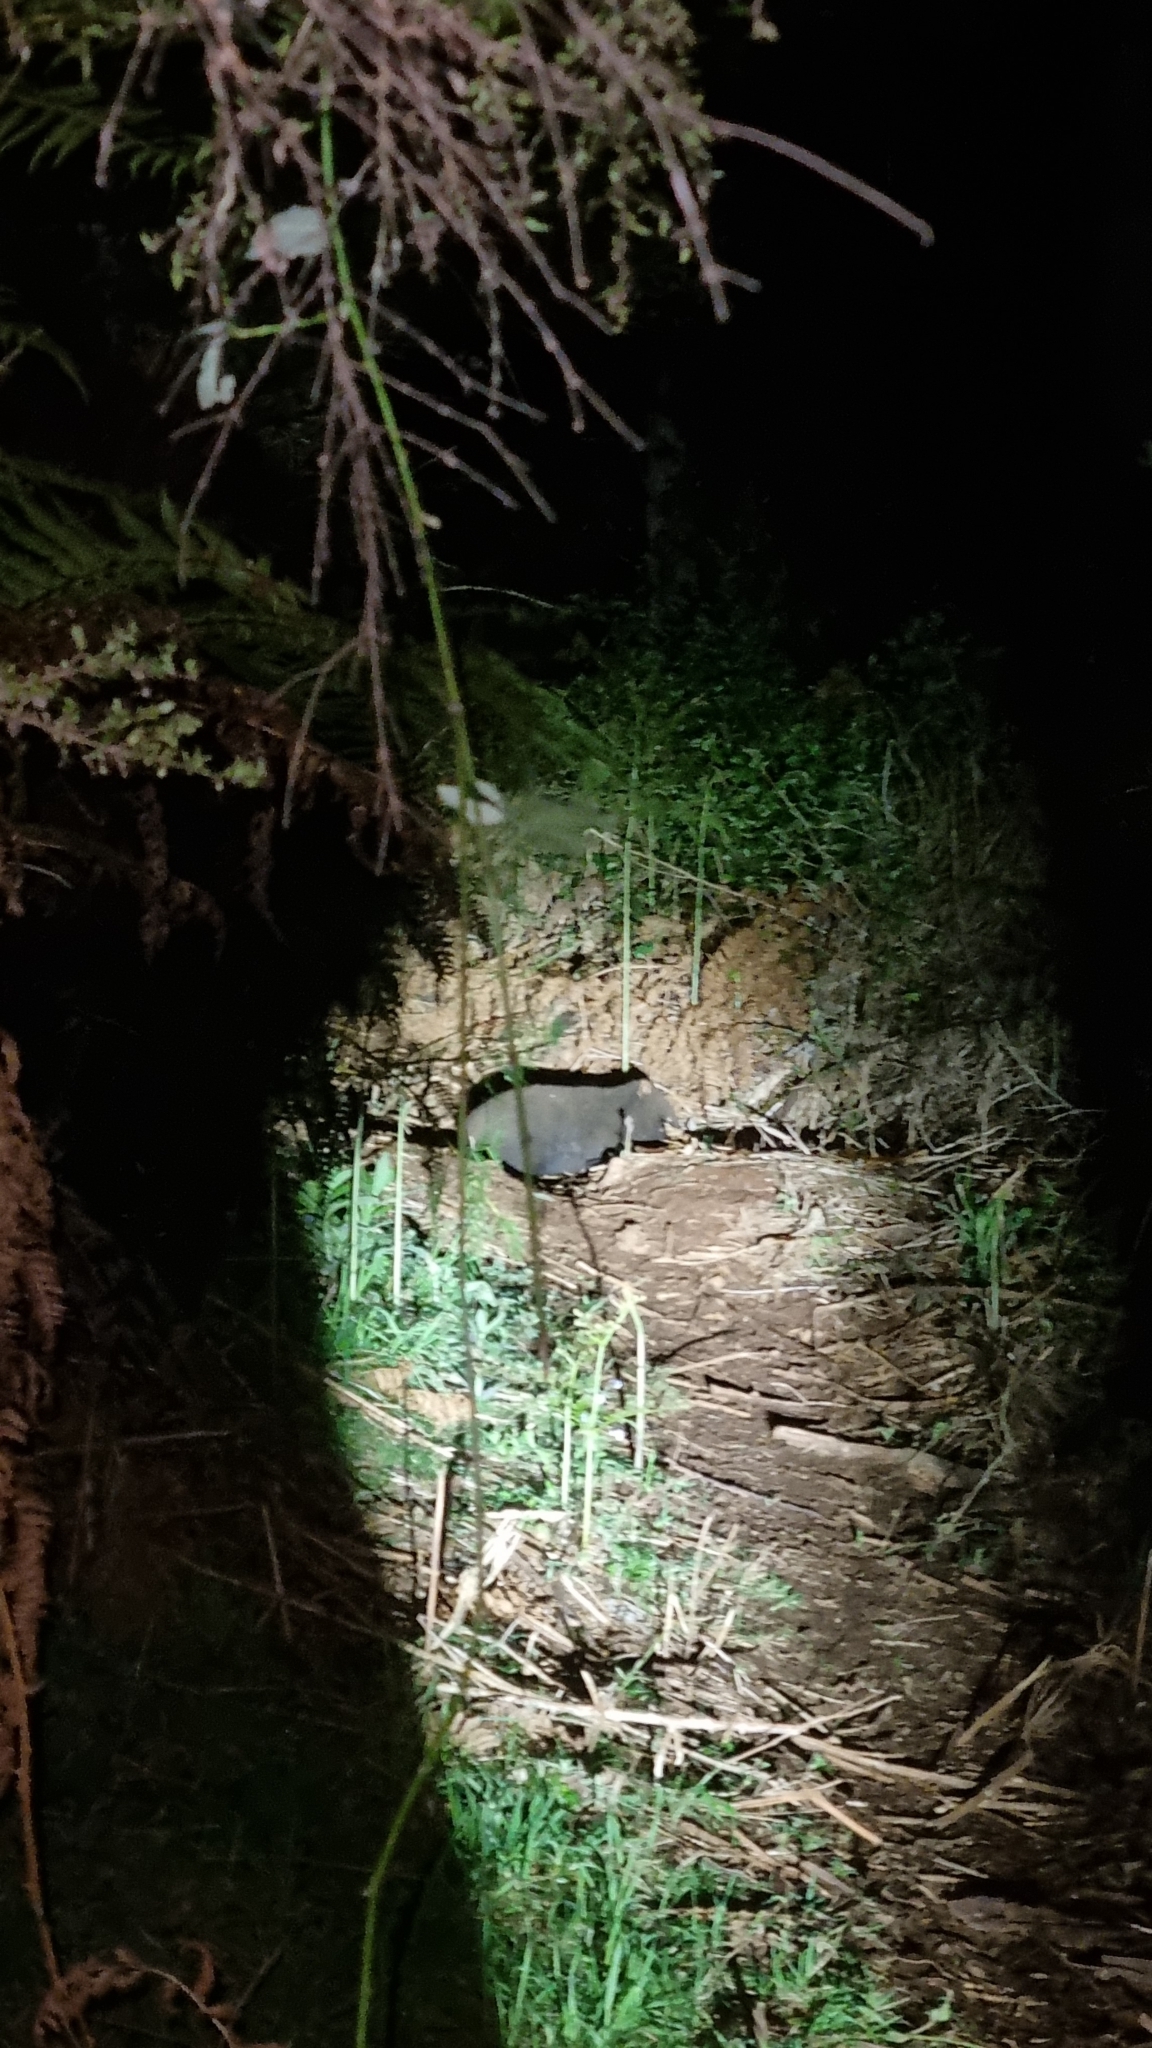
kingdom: Animalia
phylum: Chordata
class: Mammalia
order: Diprotodontia
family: Vombatidae
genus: Vombatus
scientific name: Vombatus ursinus
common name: Common wombat
